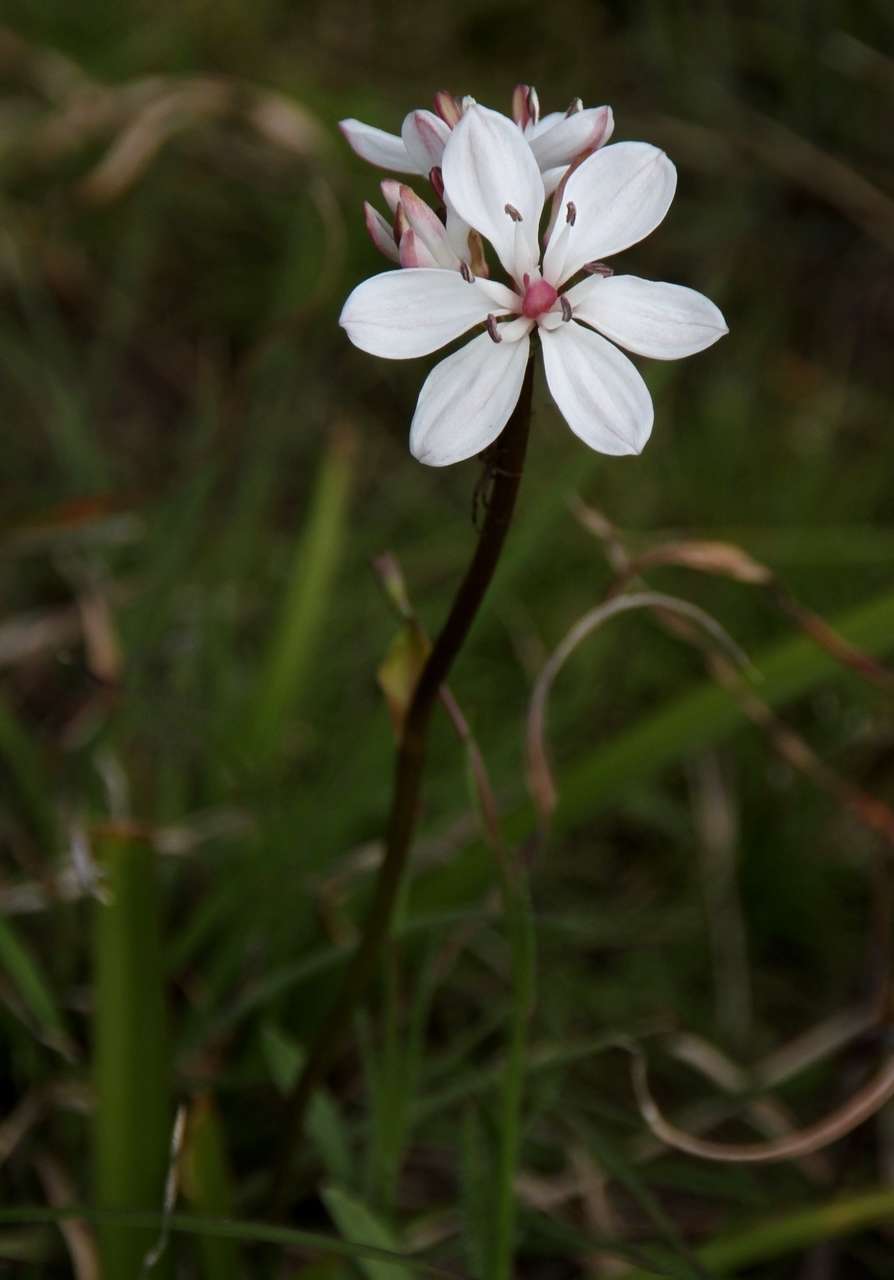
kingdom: Plantae
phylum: Tracheophyta
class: Liliopsida
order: Liliales
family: Colchicaceae
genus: Burchardia
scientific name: Burchardia umbellata
